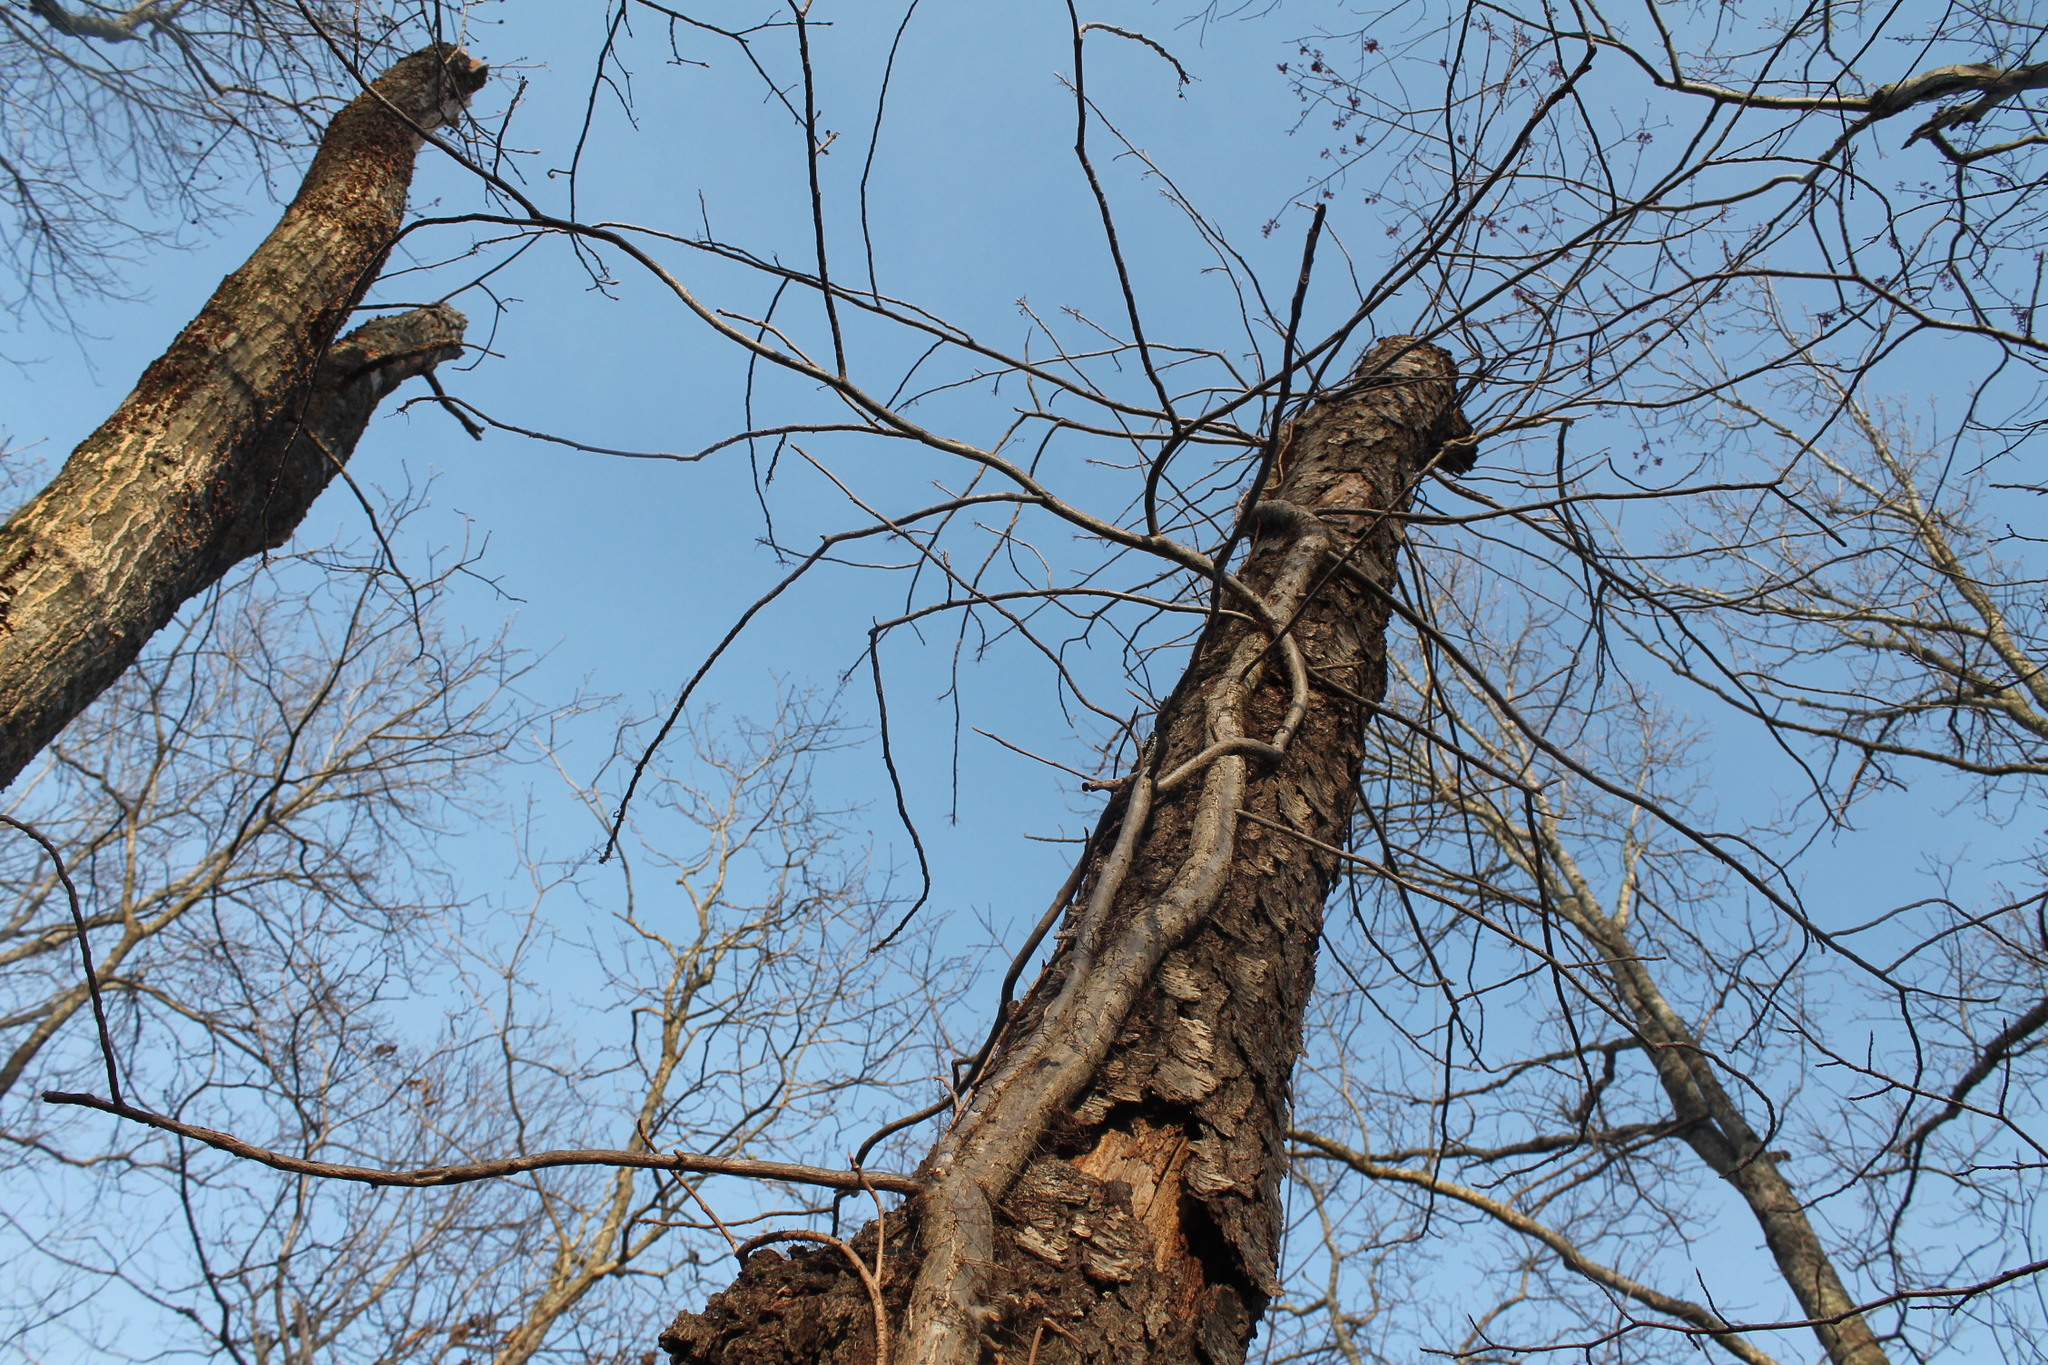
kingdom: Plantae
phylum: Tracheophyta
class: Magnoliopsida
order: Sapindales
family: Anacardiaceae
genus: Toxicodendron
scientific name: Toxicodendron radicans
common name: Poison ivy
